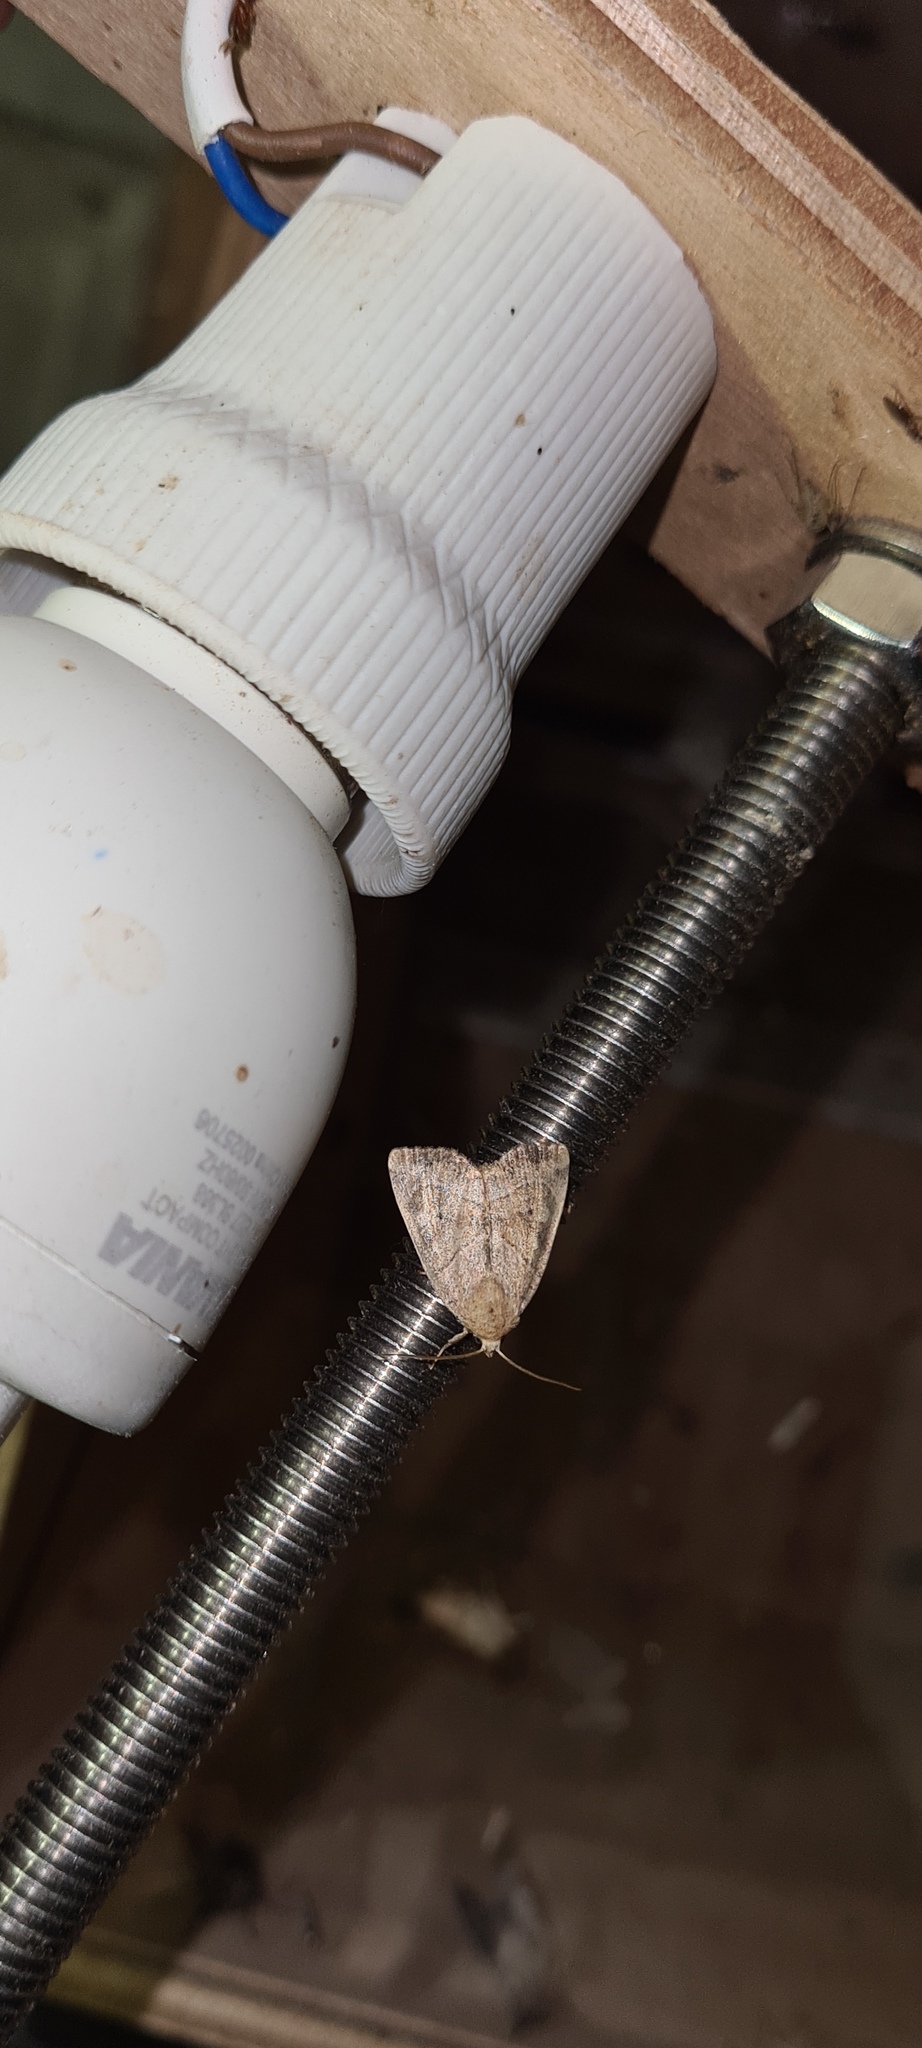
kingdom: Animalia
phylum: Arthropoda
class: Insecta
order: Lepidoptera
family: Noctuidae
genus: Cosmia
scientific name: Cosmia trapezina
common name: Dun-bar
